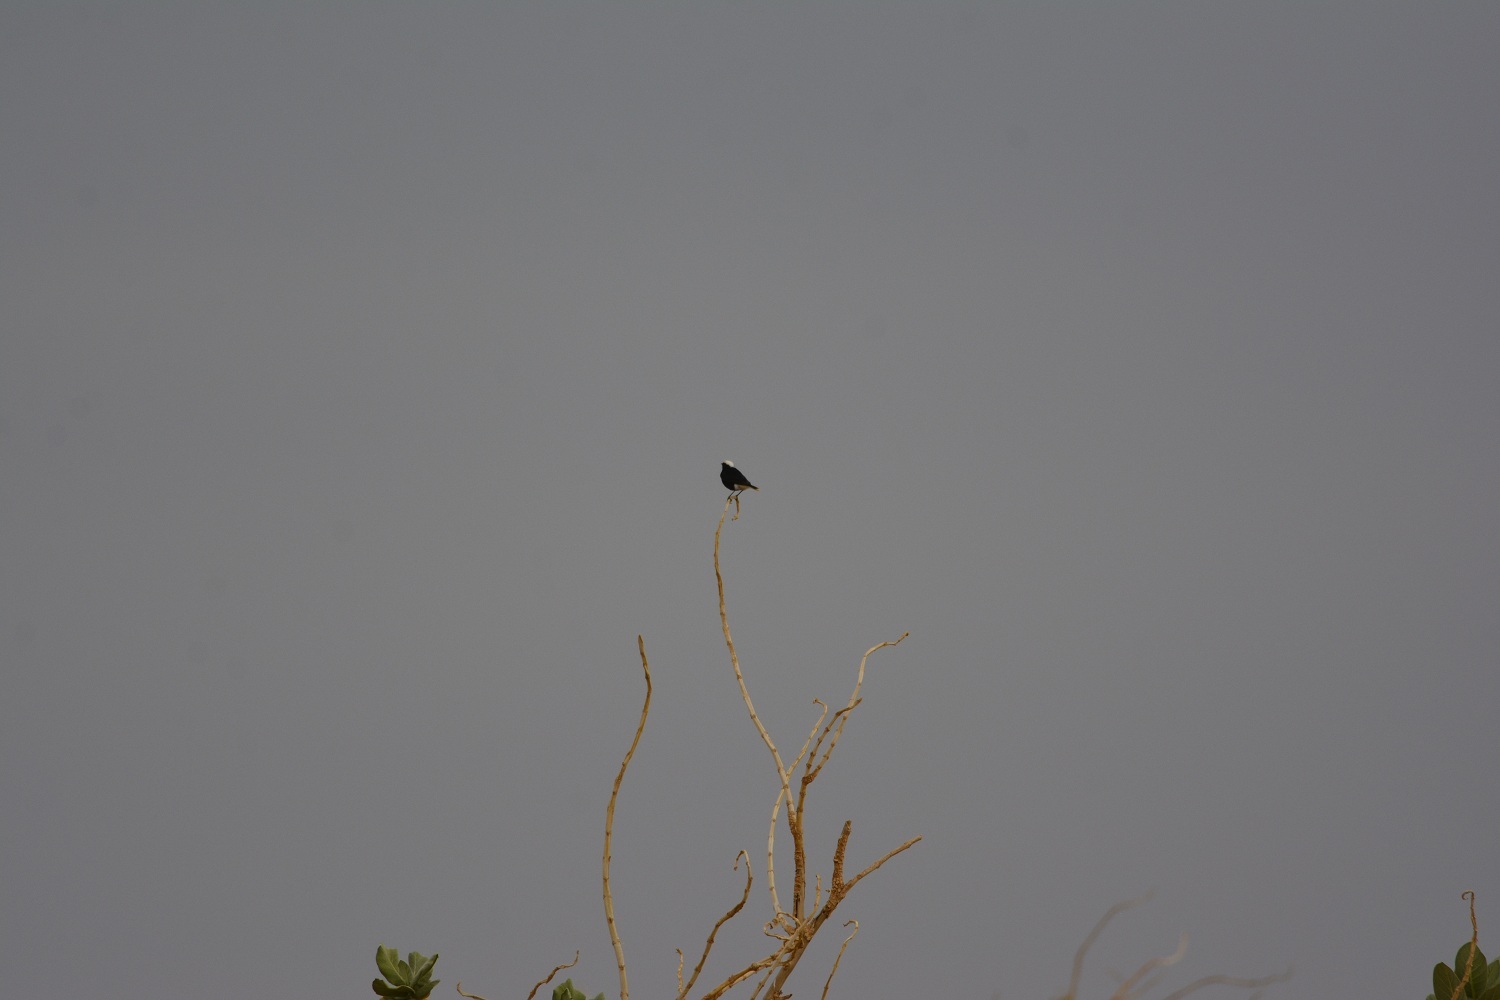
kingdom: Animalia
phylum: Chordata
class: Aves
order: Passeriformes
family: Muscicapidae
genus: Oenanthe
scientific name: Oenanthe leucopyga
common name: White-crowned wheatear
